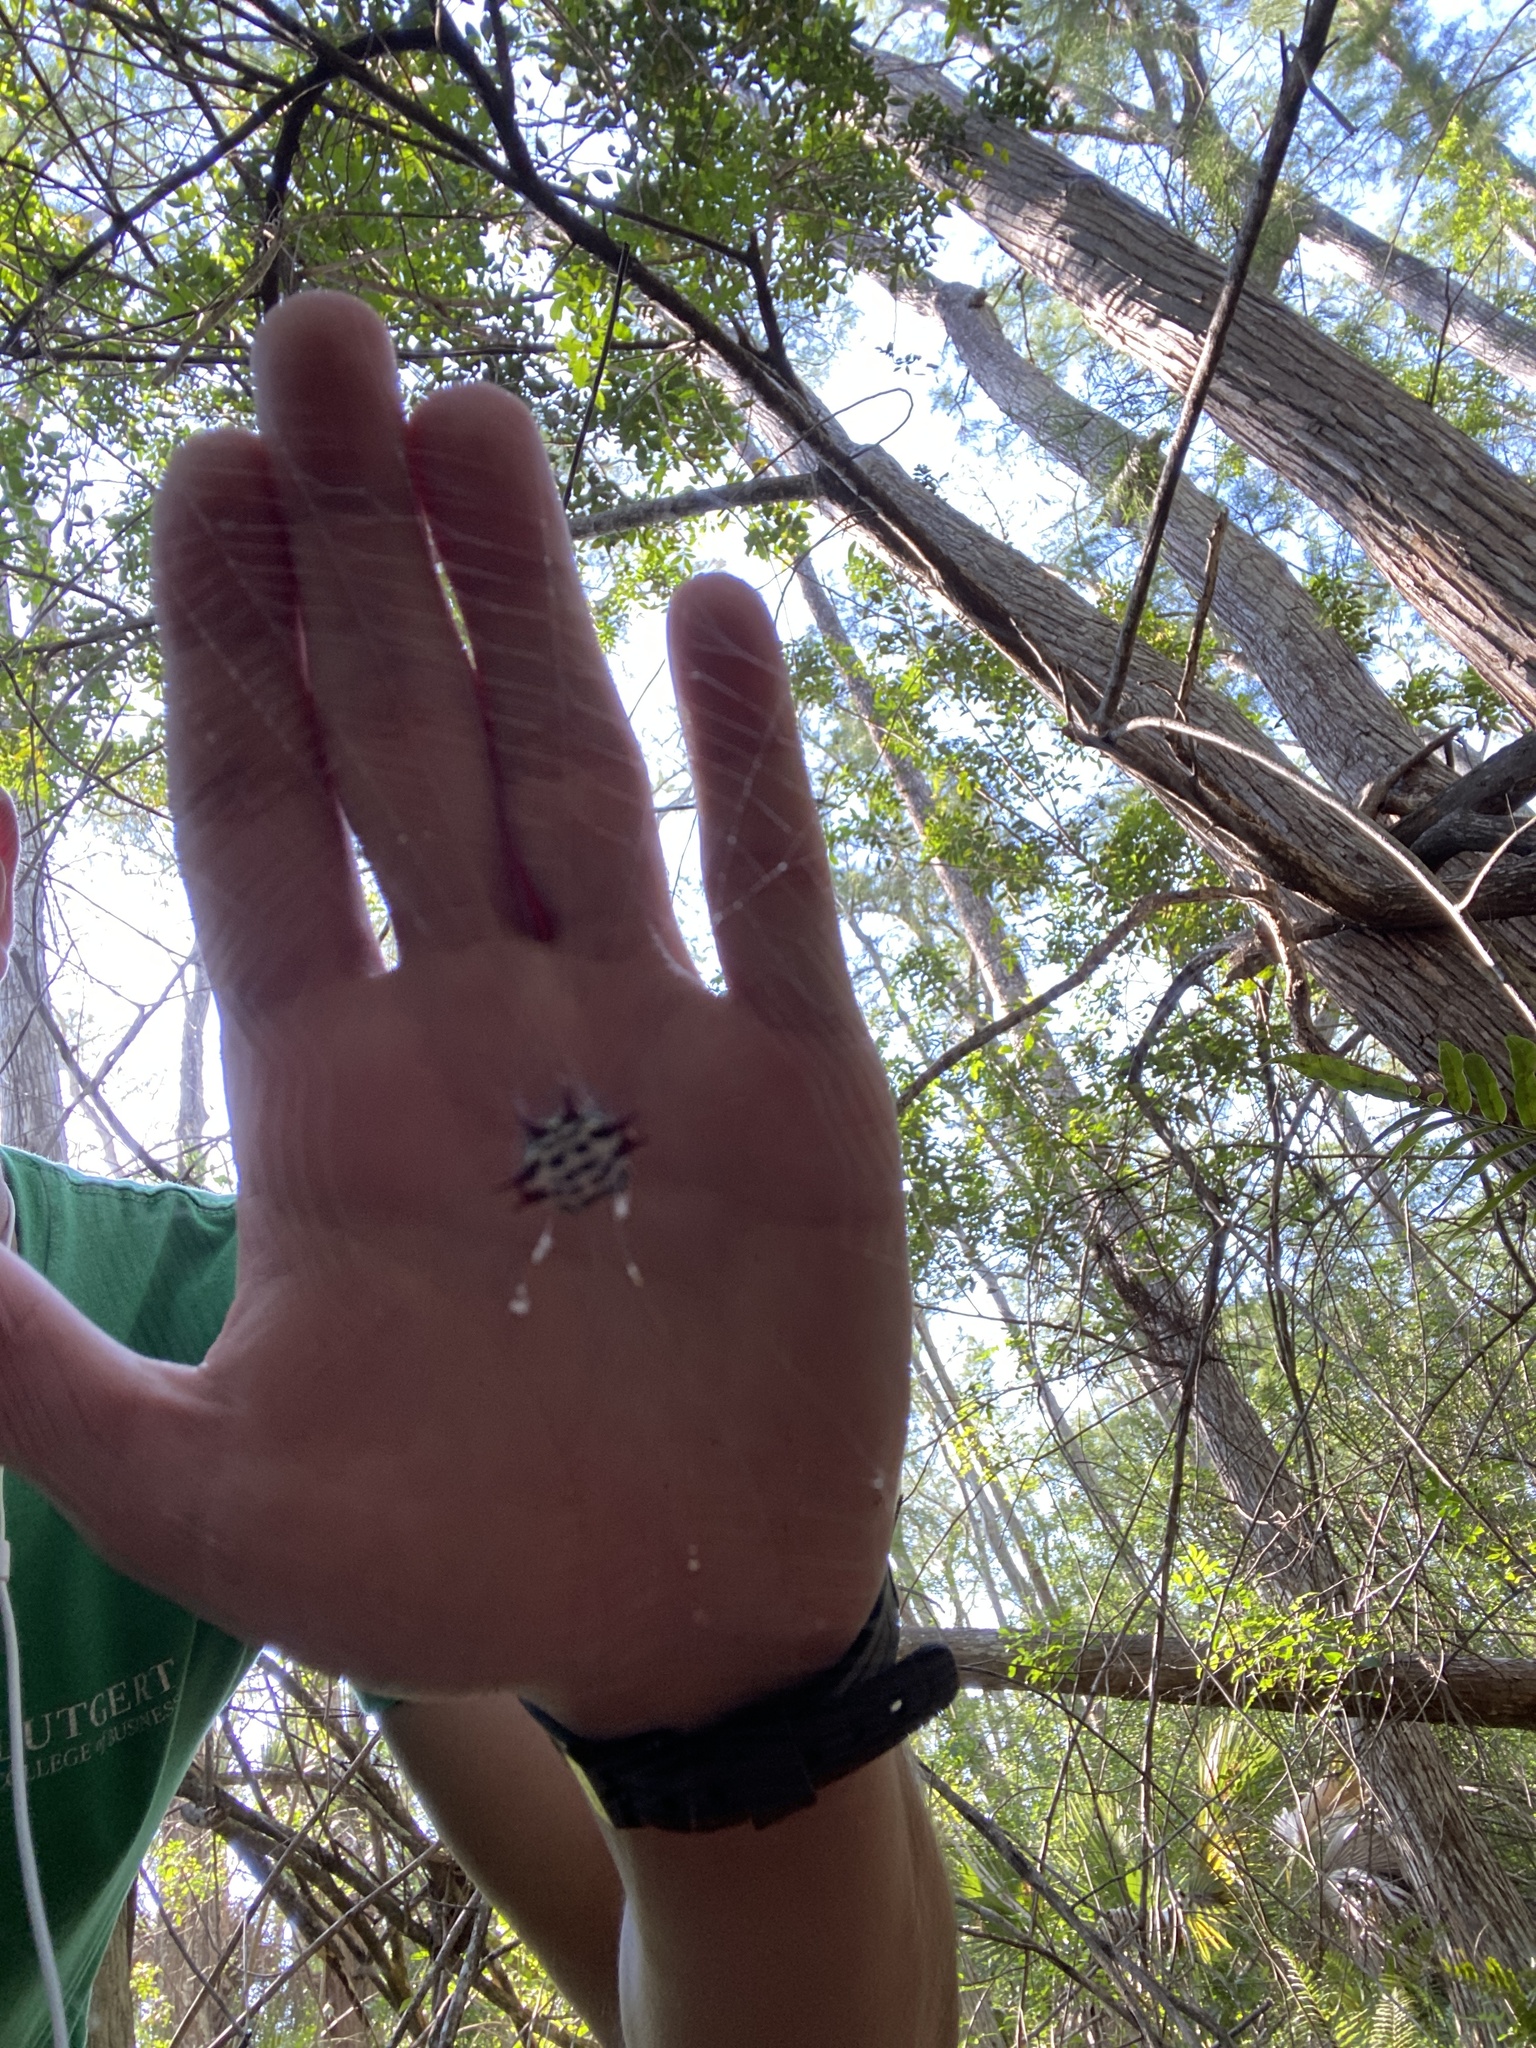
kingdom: Animalia
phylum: Arthropoda
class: Arachnida
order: Araneae
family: Araneidae
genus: Gasteracantha
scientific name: Gasteracantha cancriformis
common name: Orb weavers
